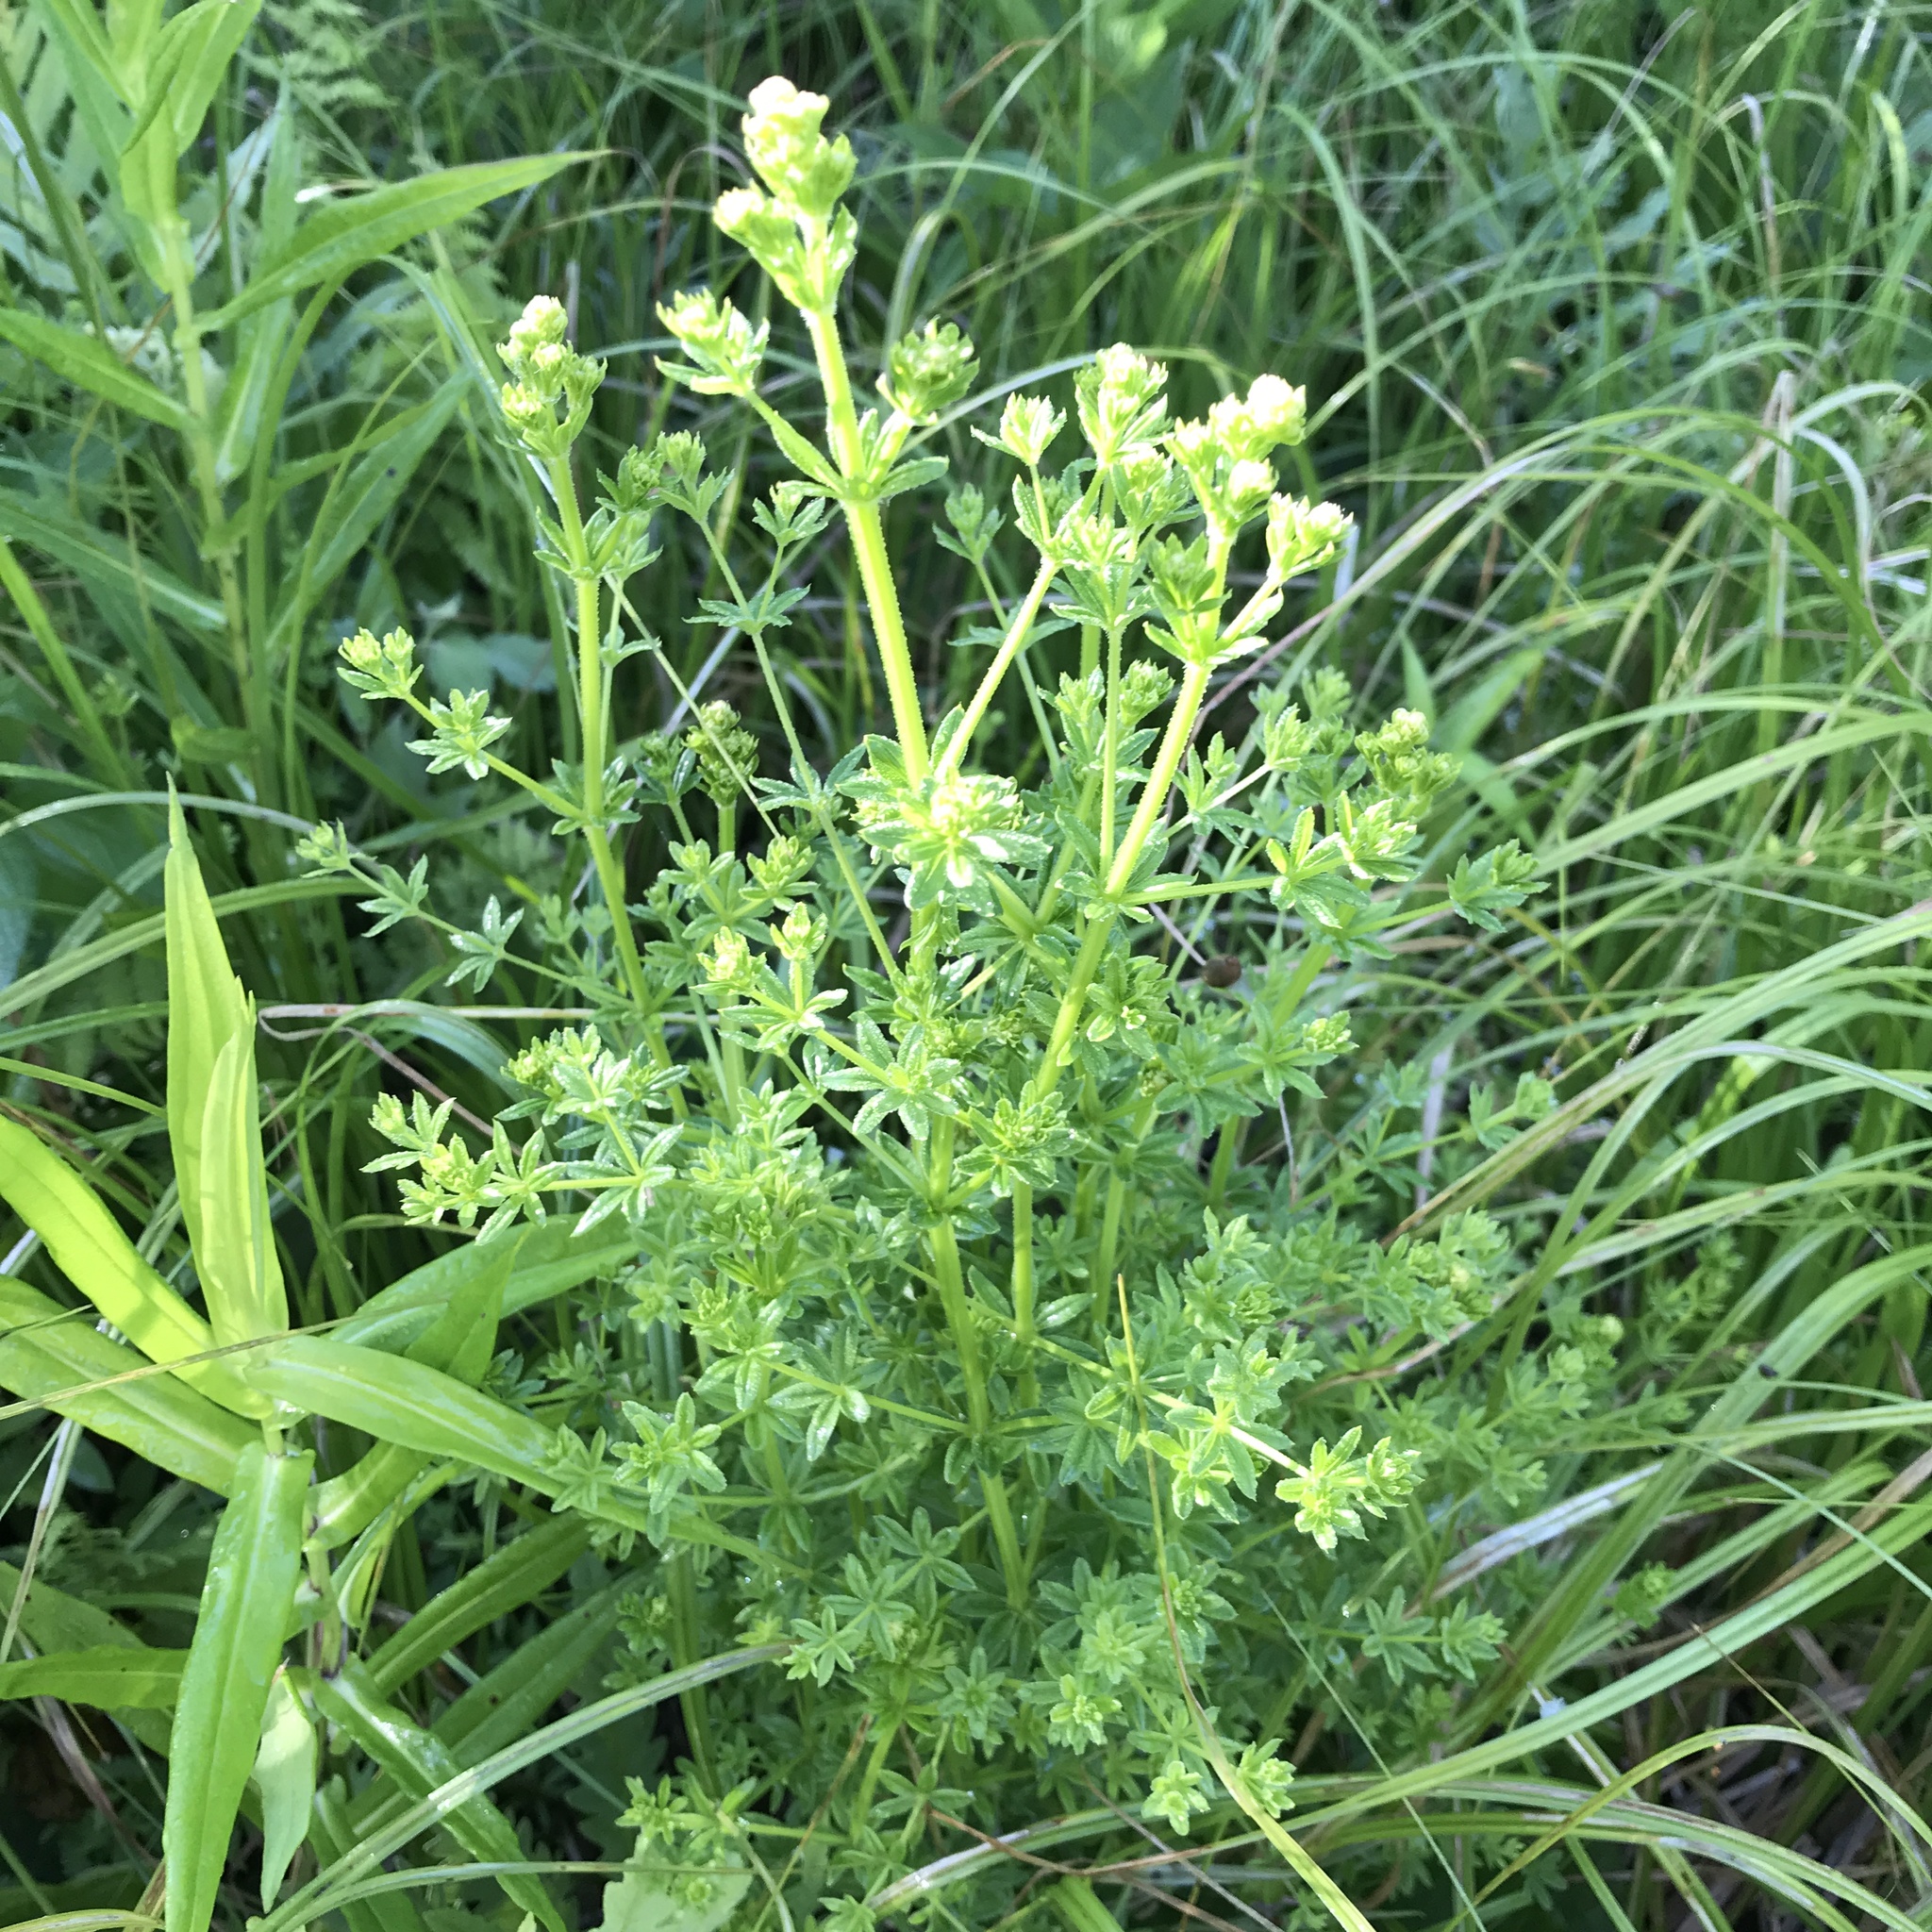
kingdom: Plantae
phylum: Tracheophyta
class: Magnoliopsida
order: Gentianales
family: Rubiaceae
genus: Galium
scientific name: Galium asprellum
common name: Rough bedstraw
